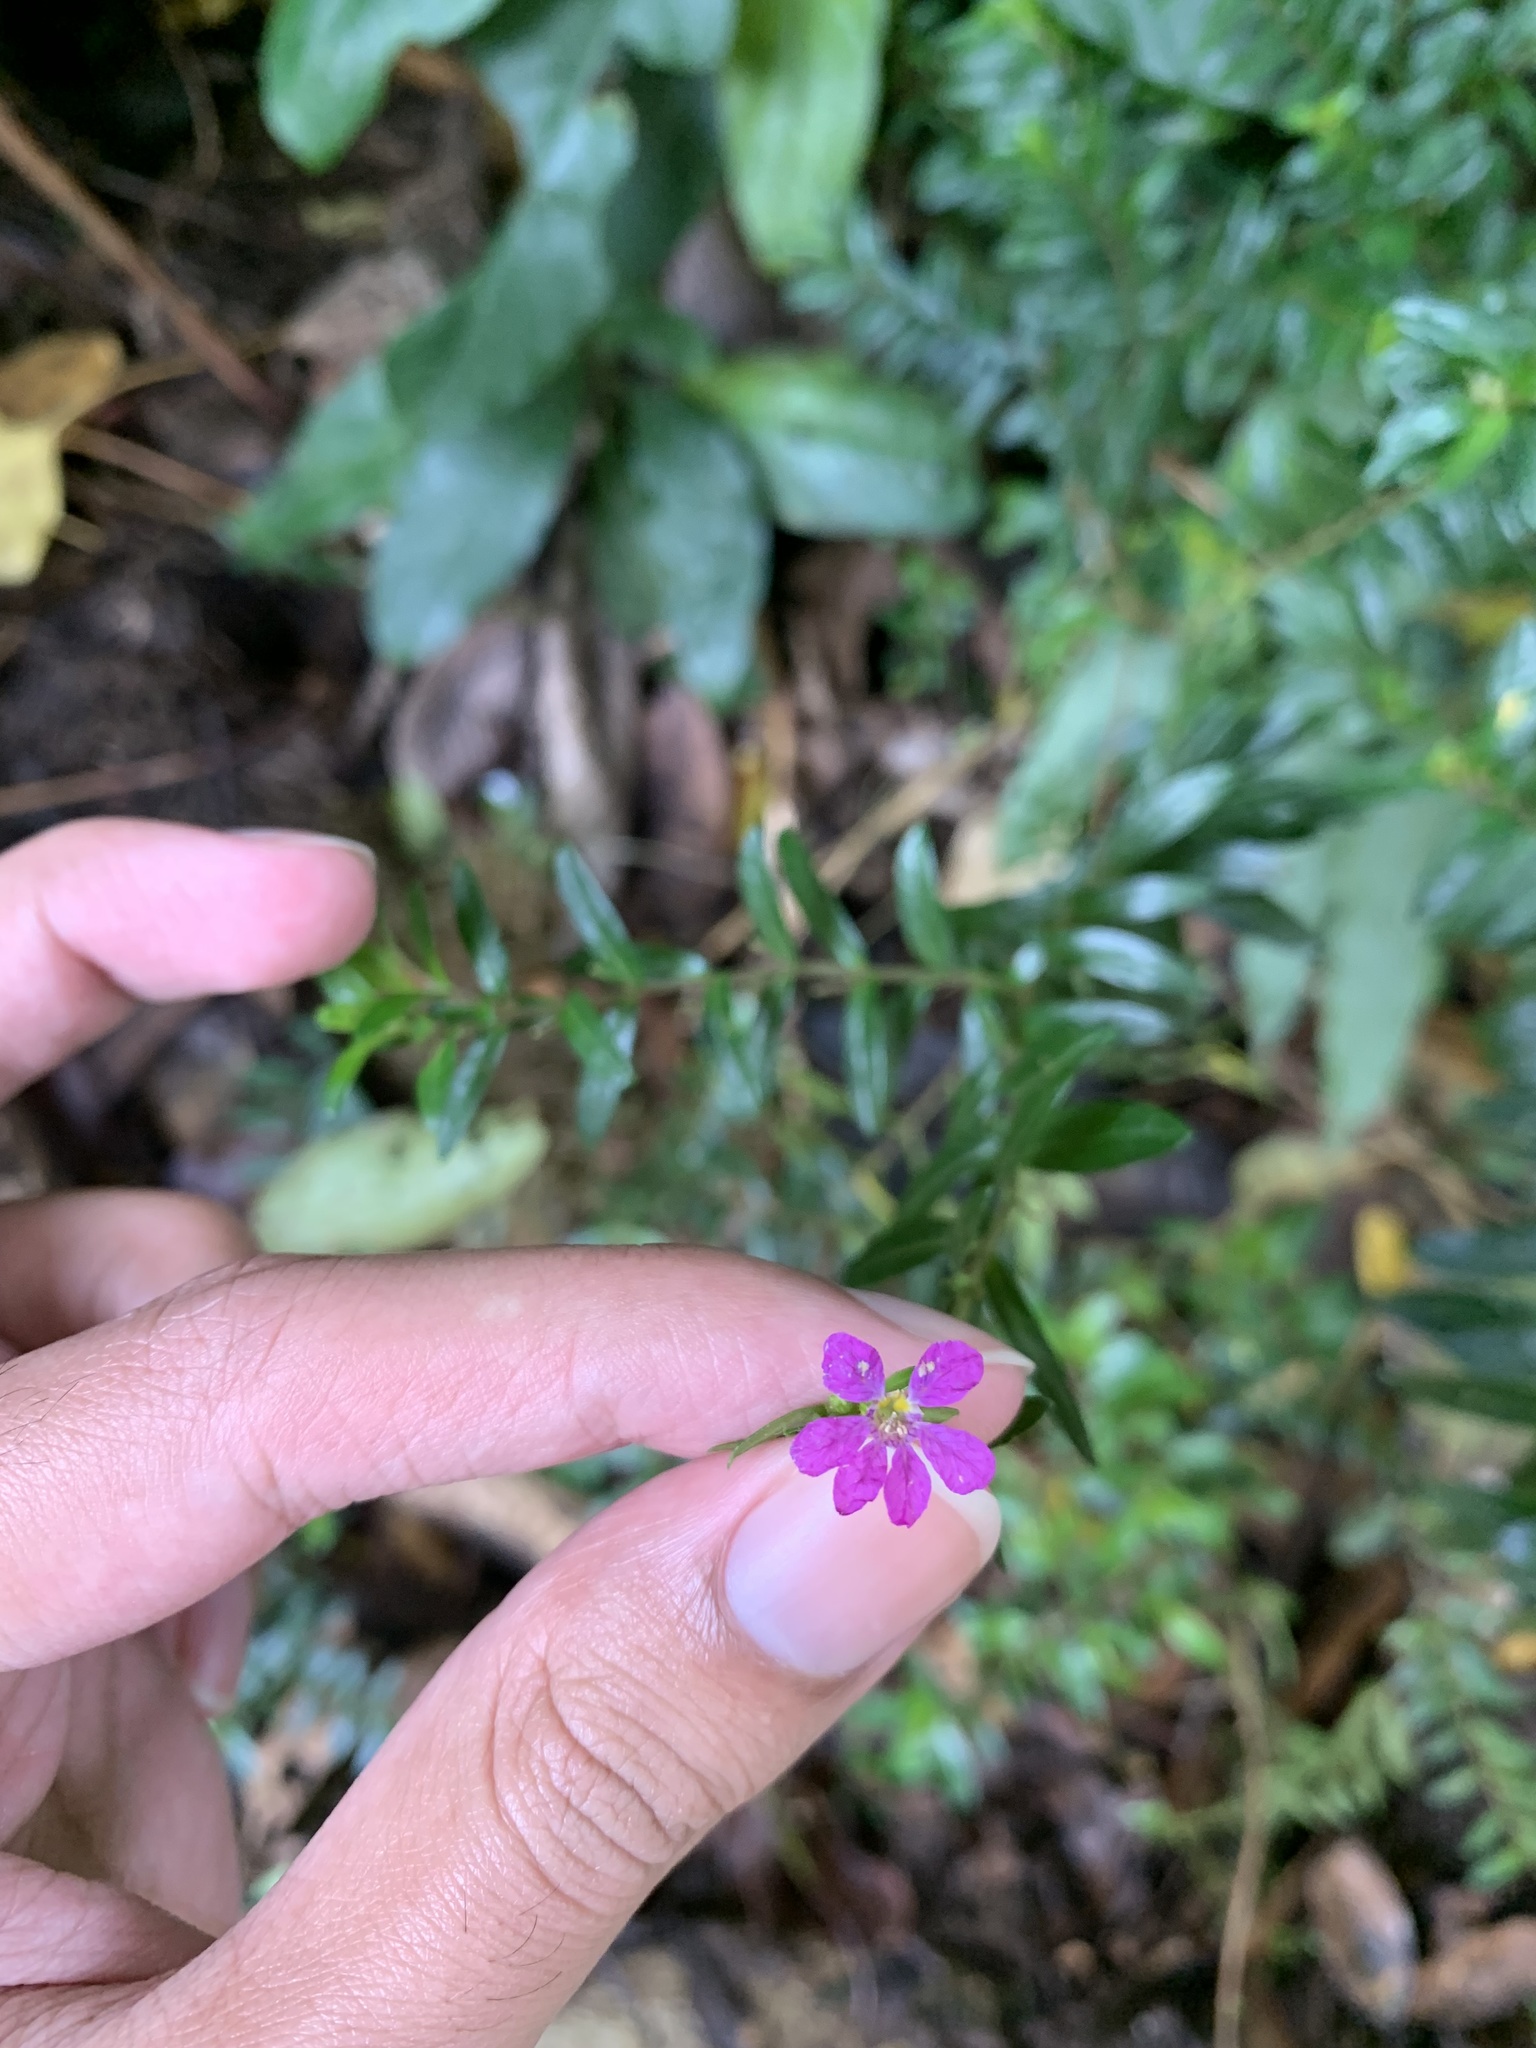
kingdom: Plantae
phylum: Tracheophyta
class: Magnoliopsida
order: Myrtales
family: Lythraceae
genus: Cuphea
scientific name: Cuphea hyssopifolia
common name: False heather
